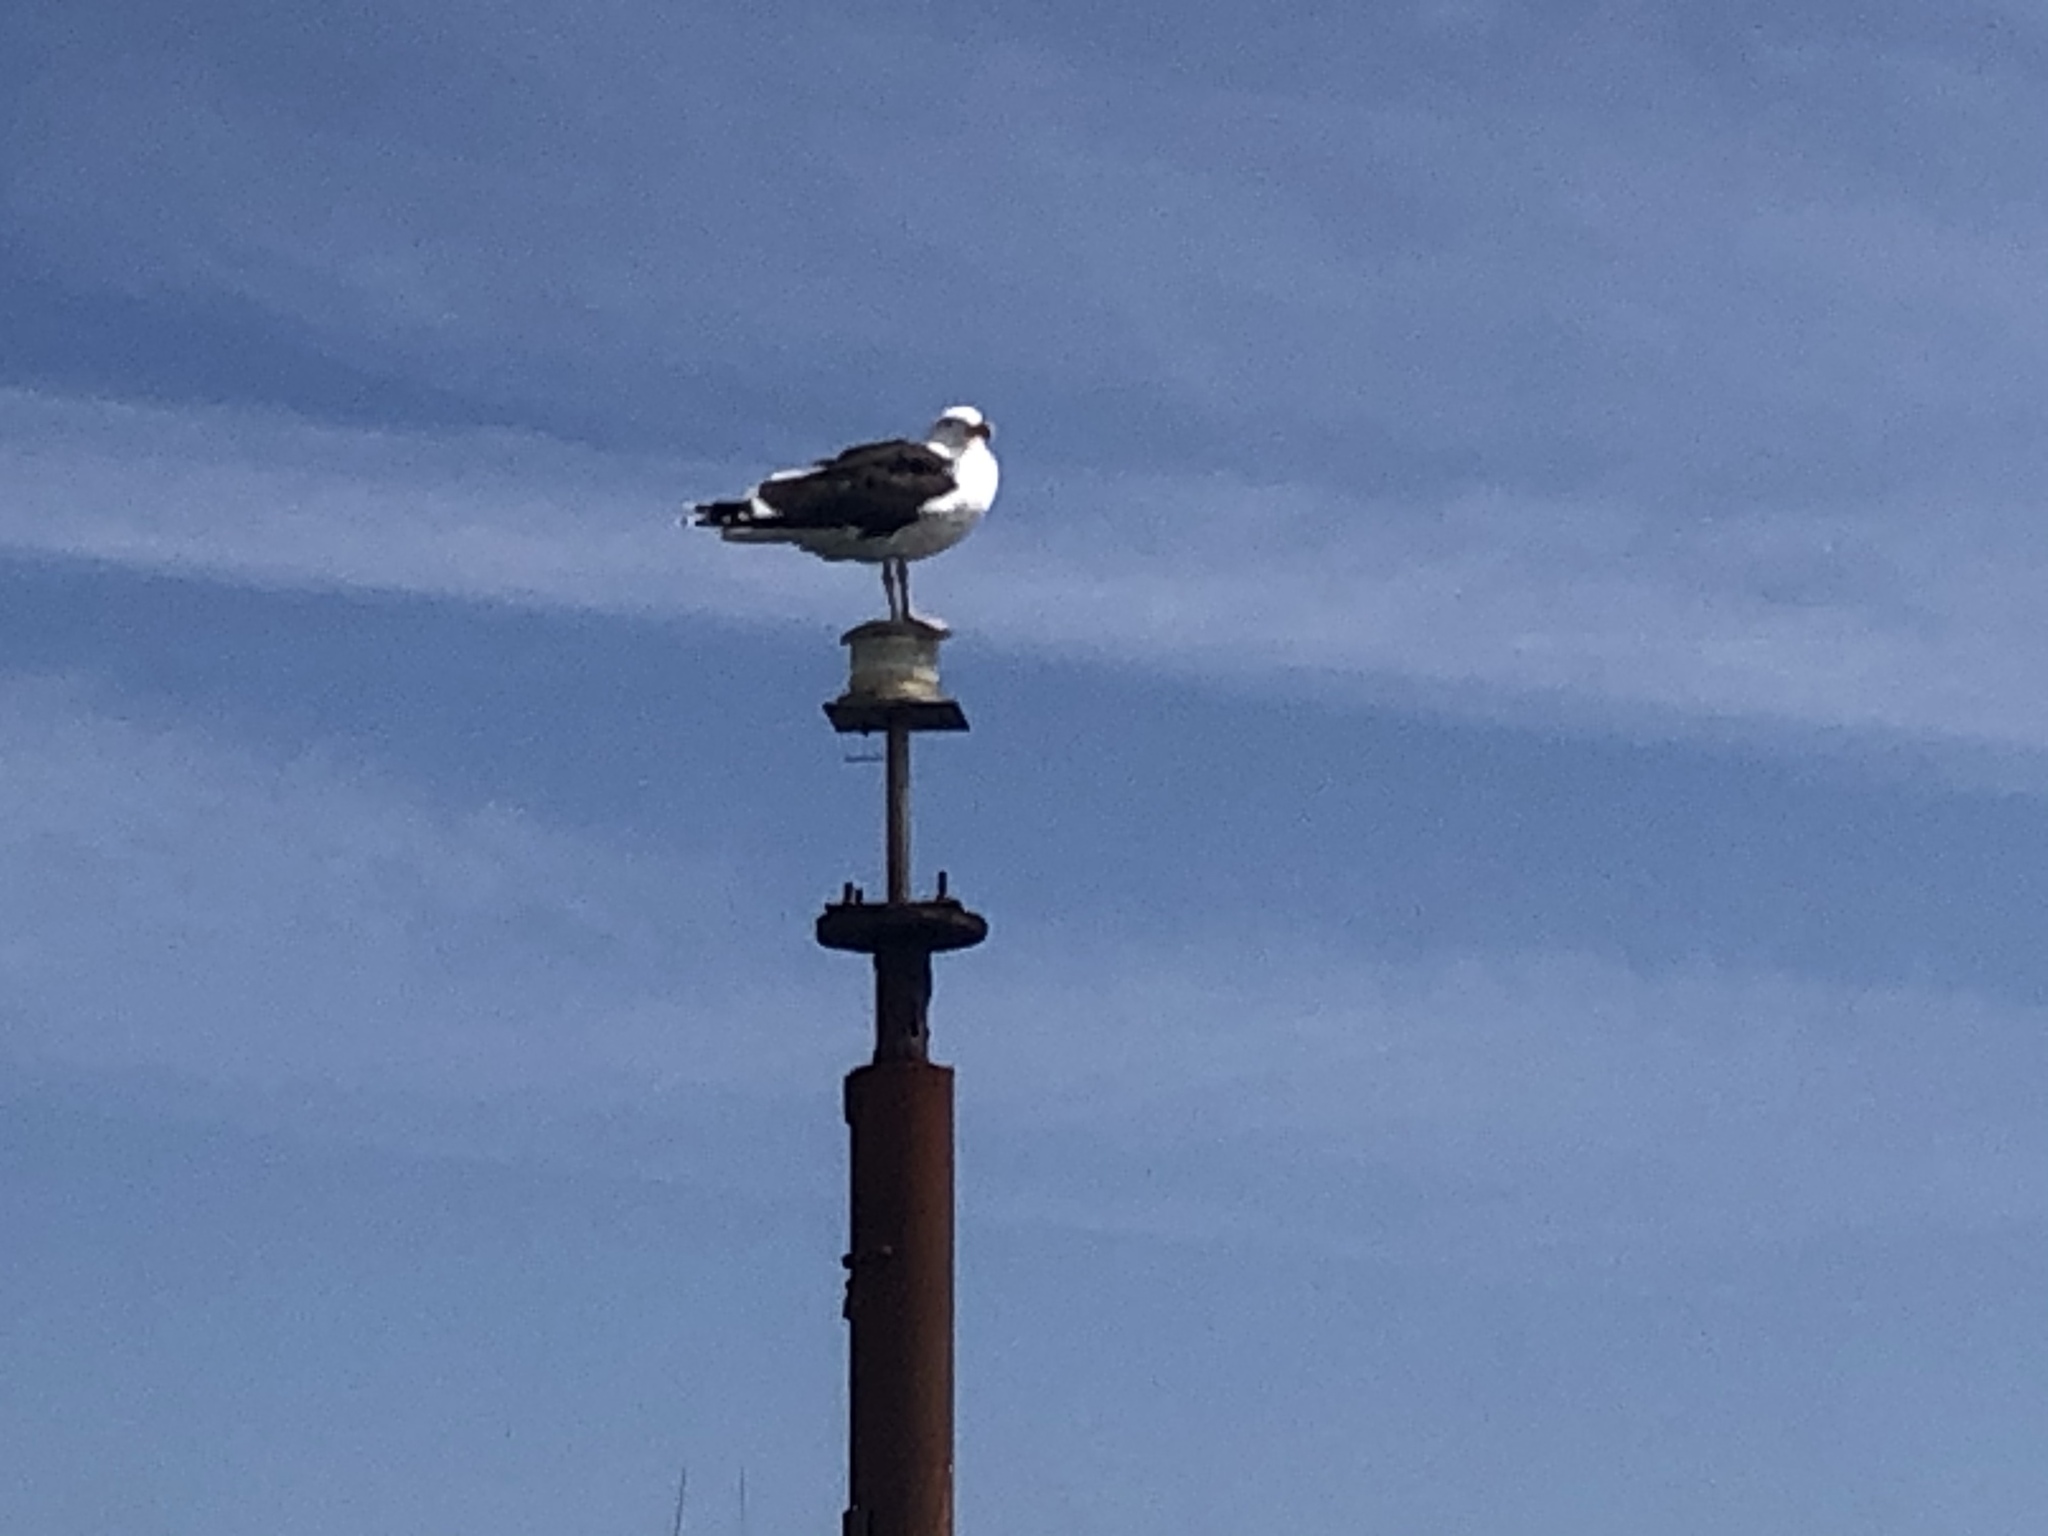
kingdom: Animalia
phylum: Chordata
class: Aves
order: Charadriiformes
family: Laridae
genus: Larus
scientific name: Larus marinus
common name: Great black-backed gull
